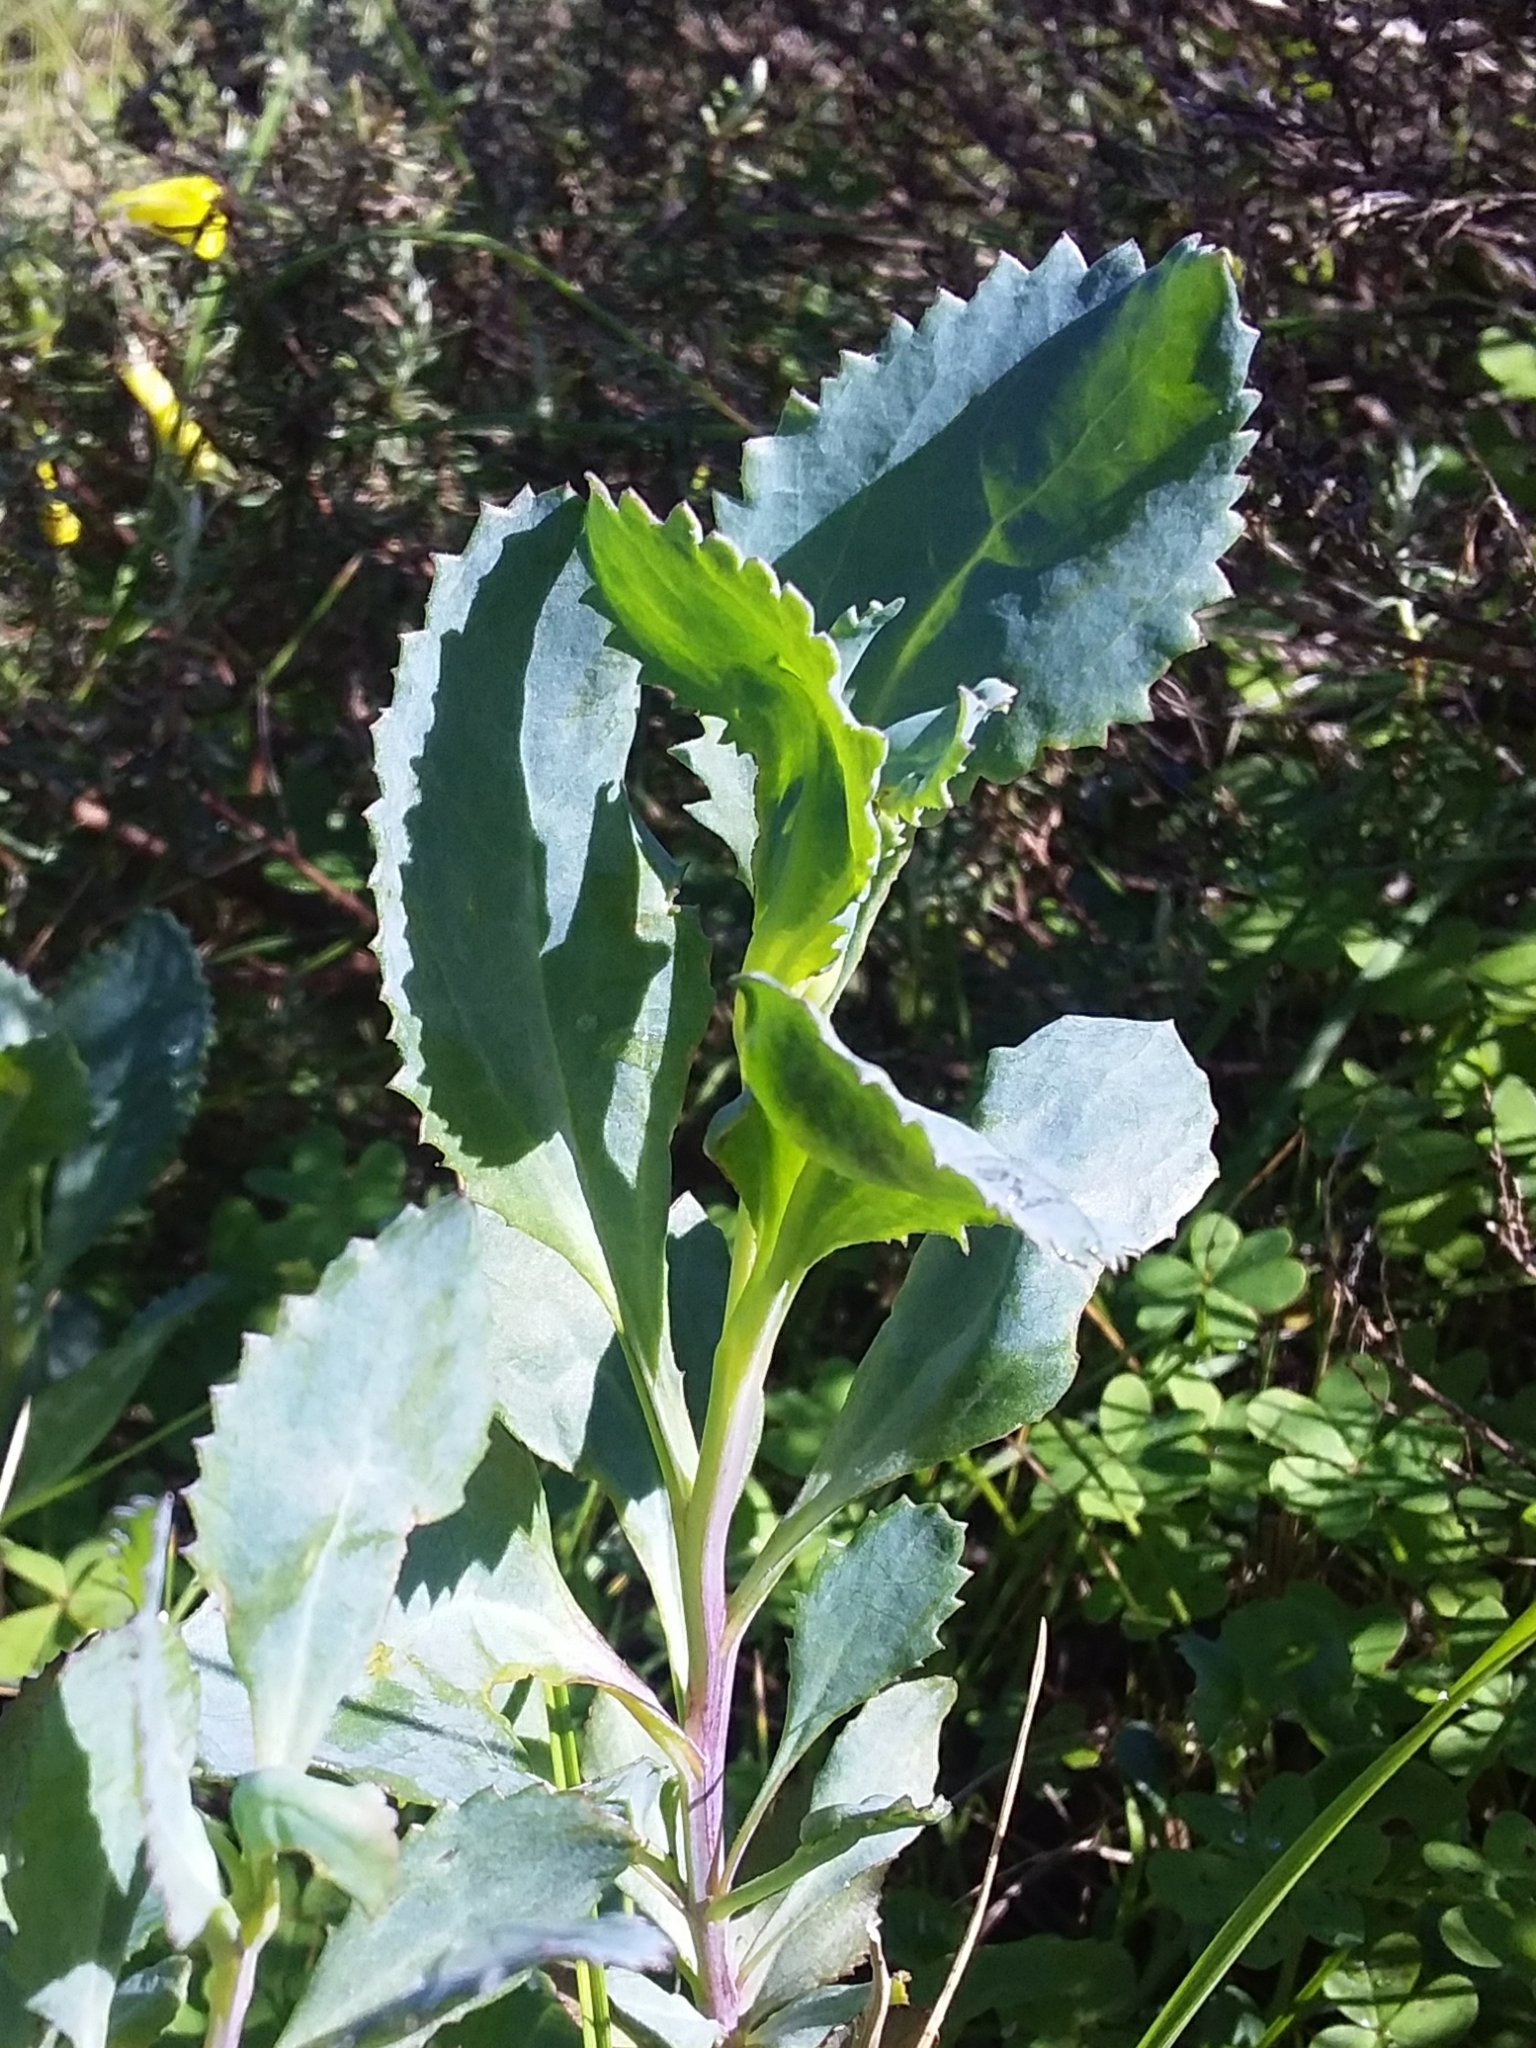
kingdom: Plantae
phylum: Tracheophyta
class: Magnoliopsida
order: Asterales
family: Goodeniaceae
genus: Goodenia
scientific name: Goodenia albiflora
